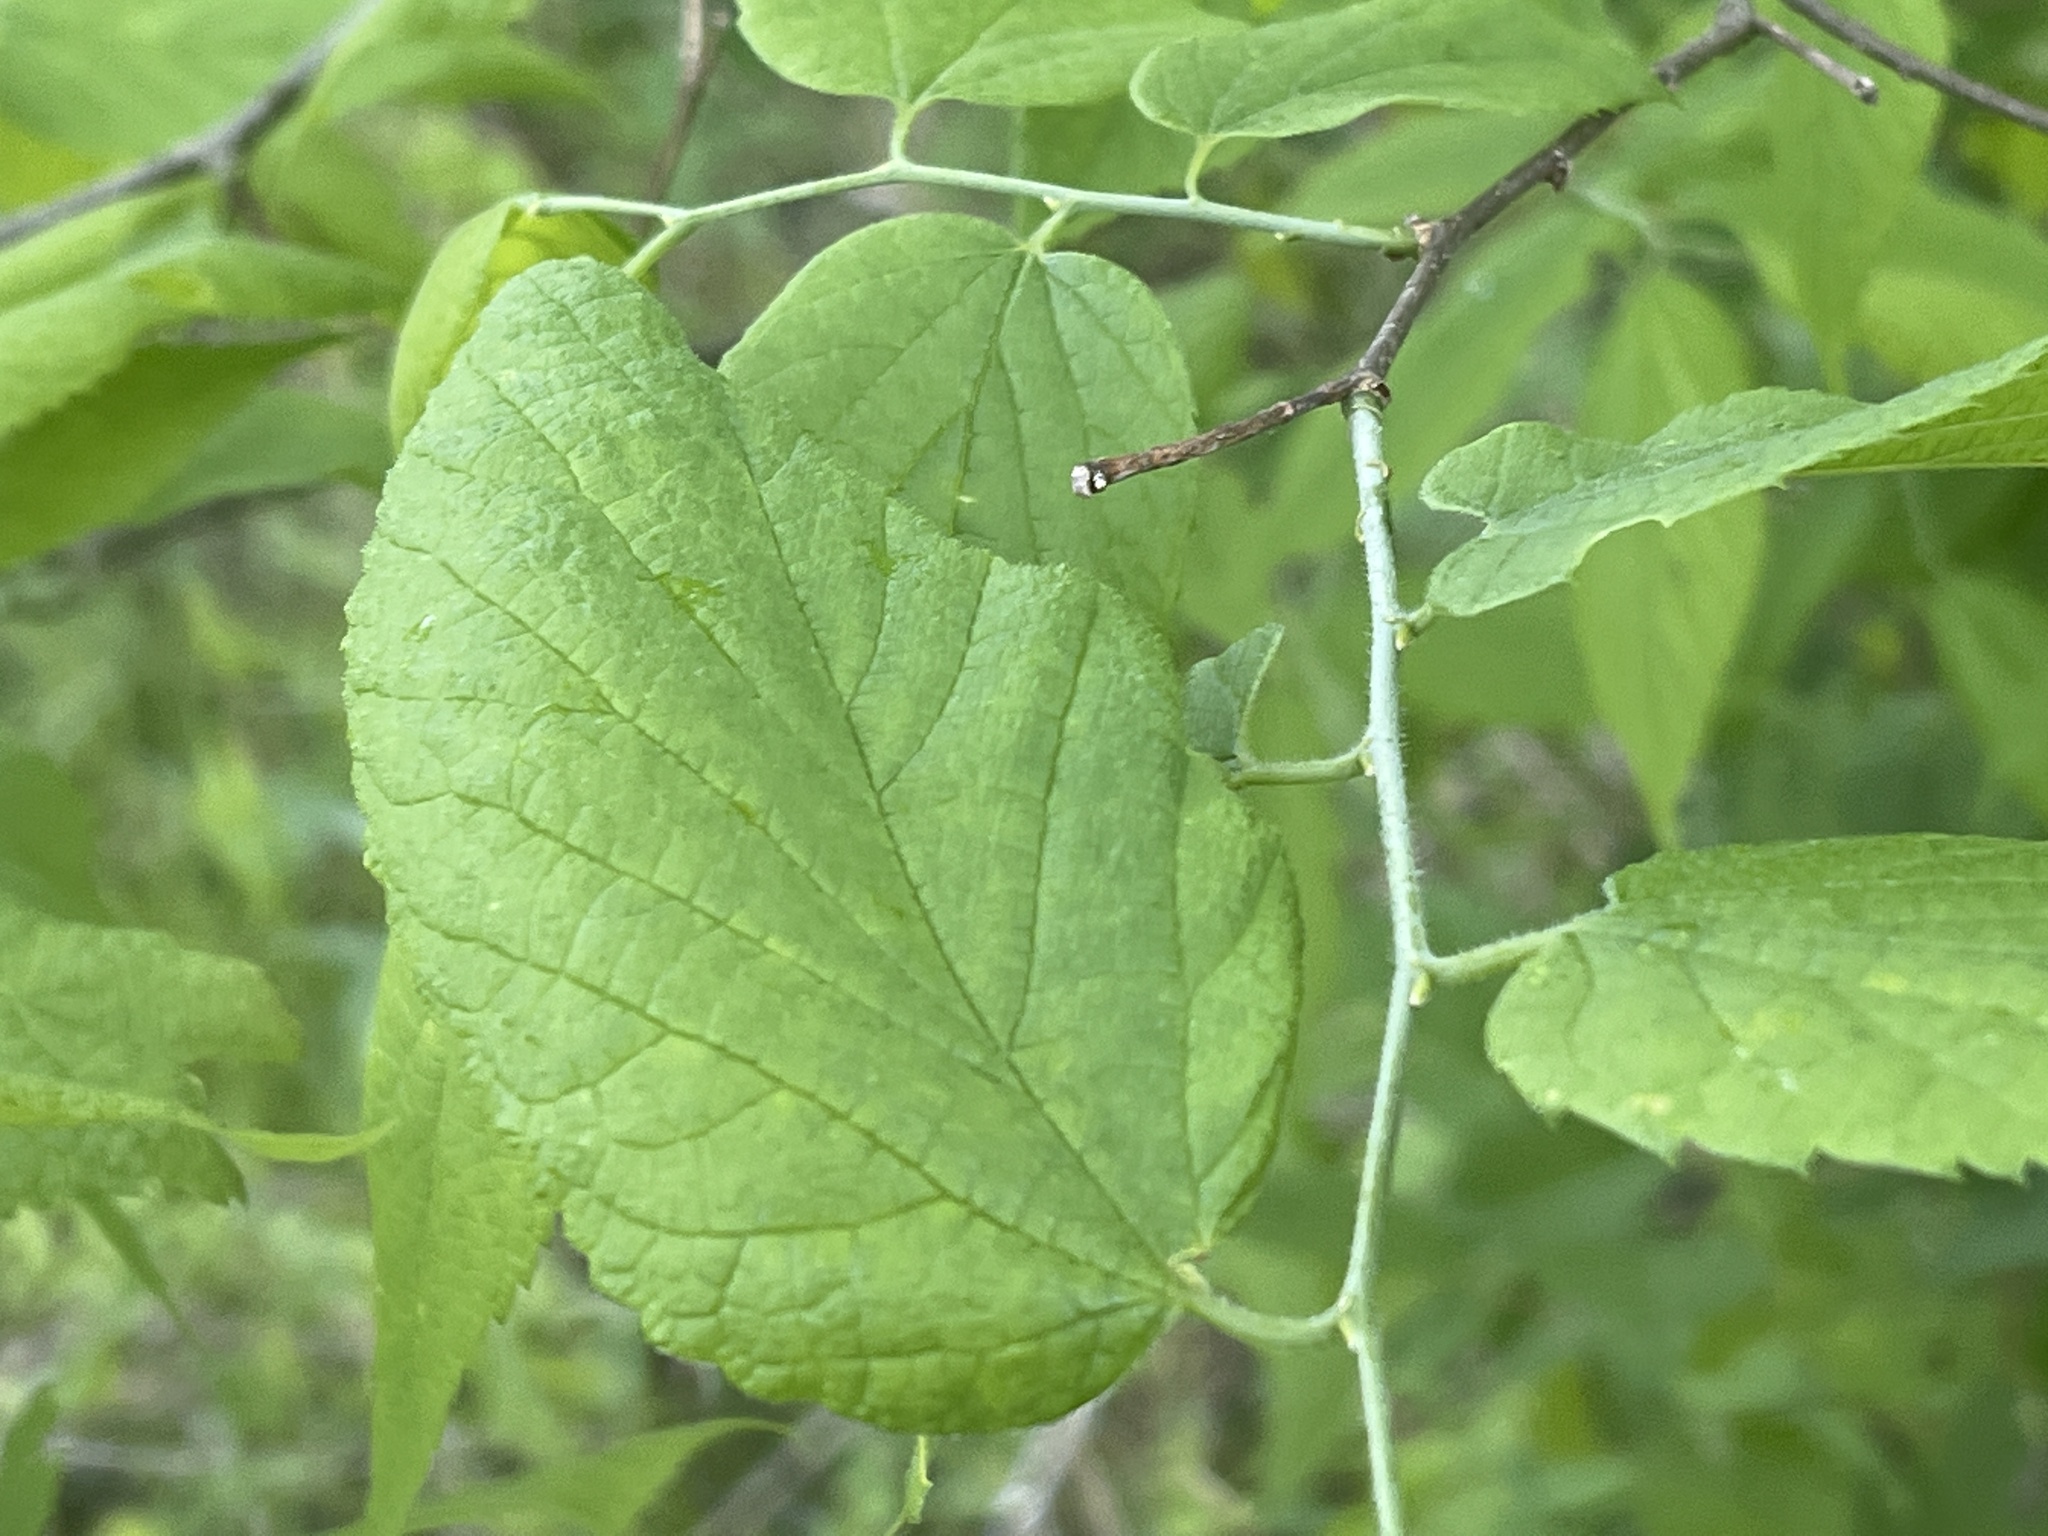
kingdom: Plantae
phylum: Tracheophyta
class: Magnoliopsida
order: Rosales
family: Cannabaceae
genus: Celtis
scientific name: Celtis occidentalis
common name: Common hackberry
